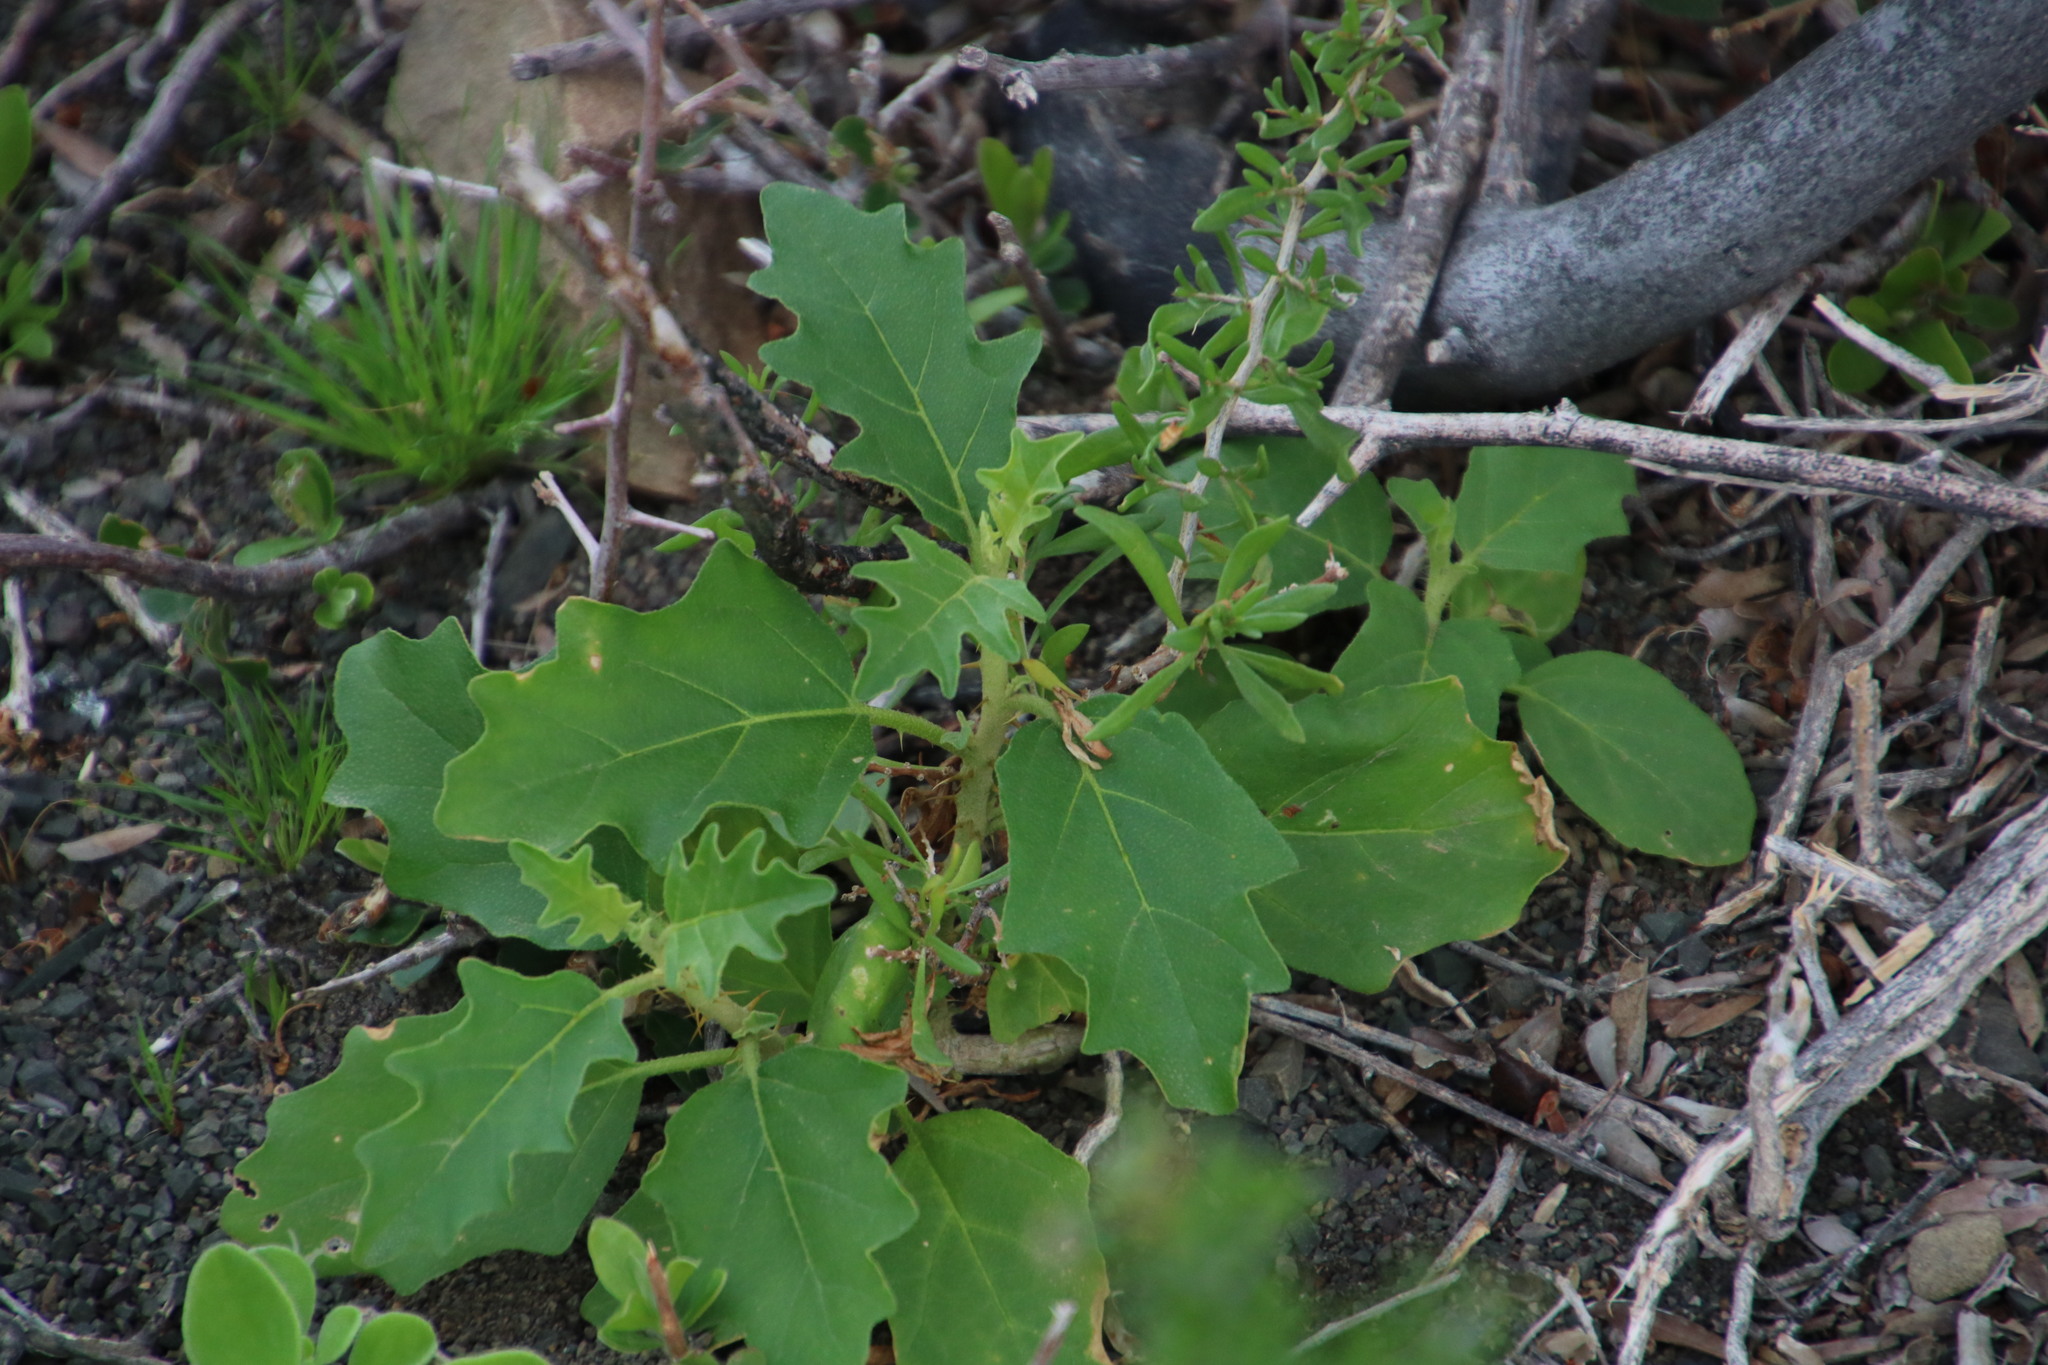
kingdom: Plantae
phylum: Tracheophyta
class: Magnoliopsida
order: Solanales
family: Solanaceae
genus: Solanum
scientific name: Solanum capense
